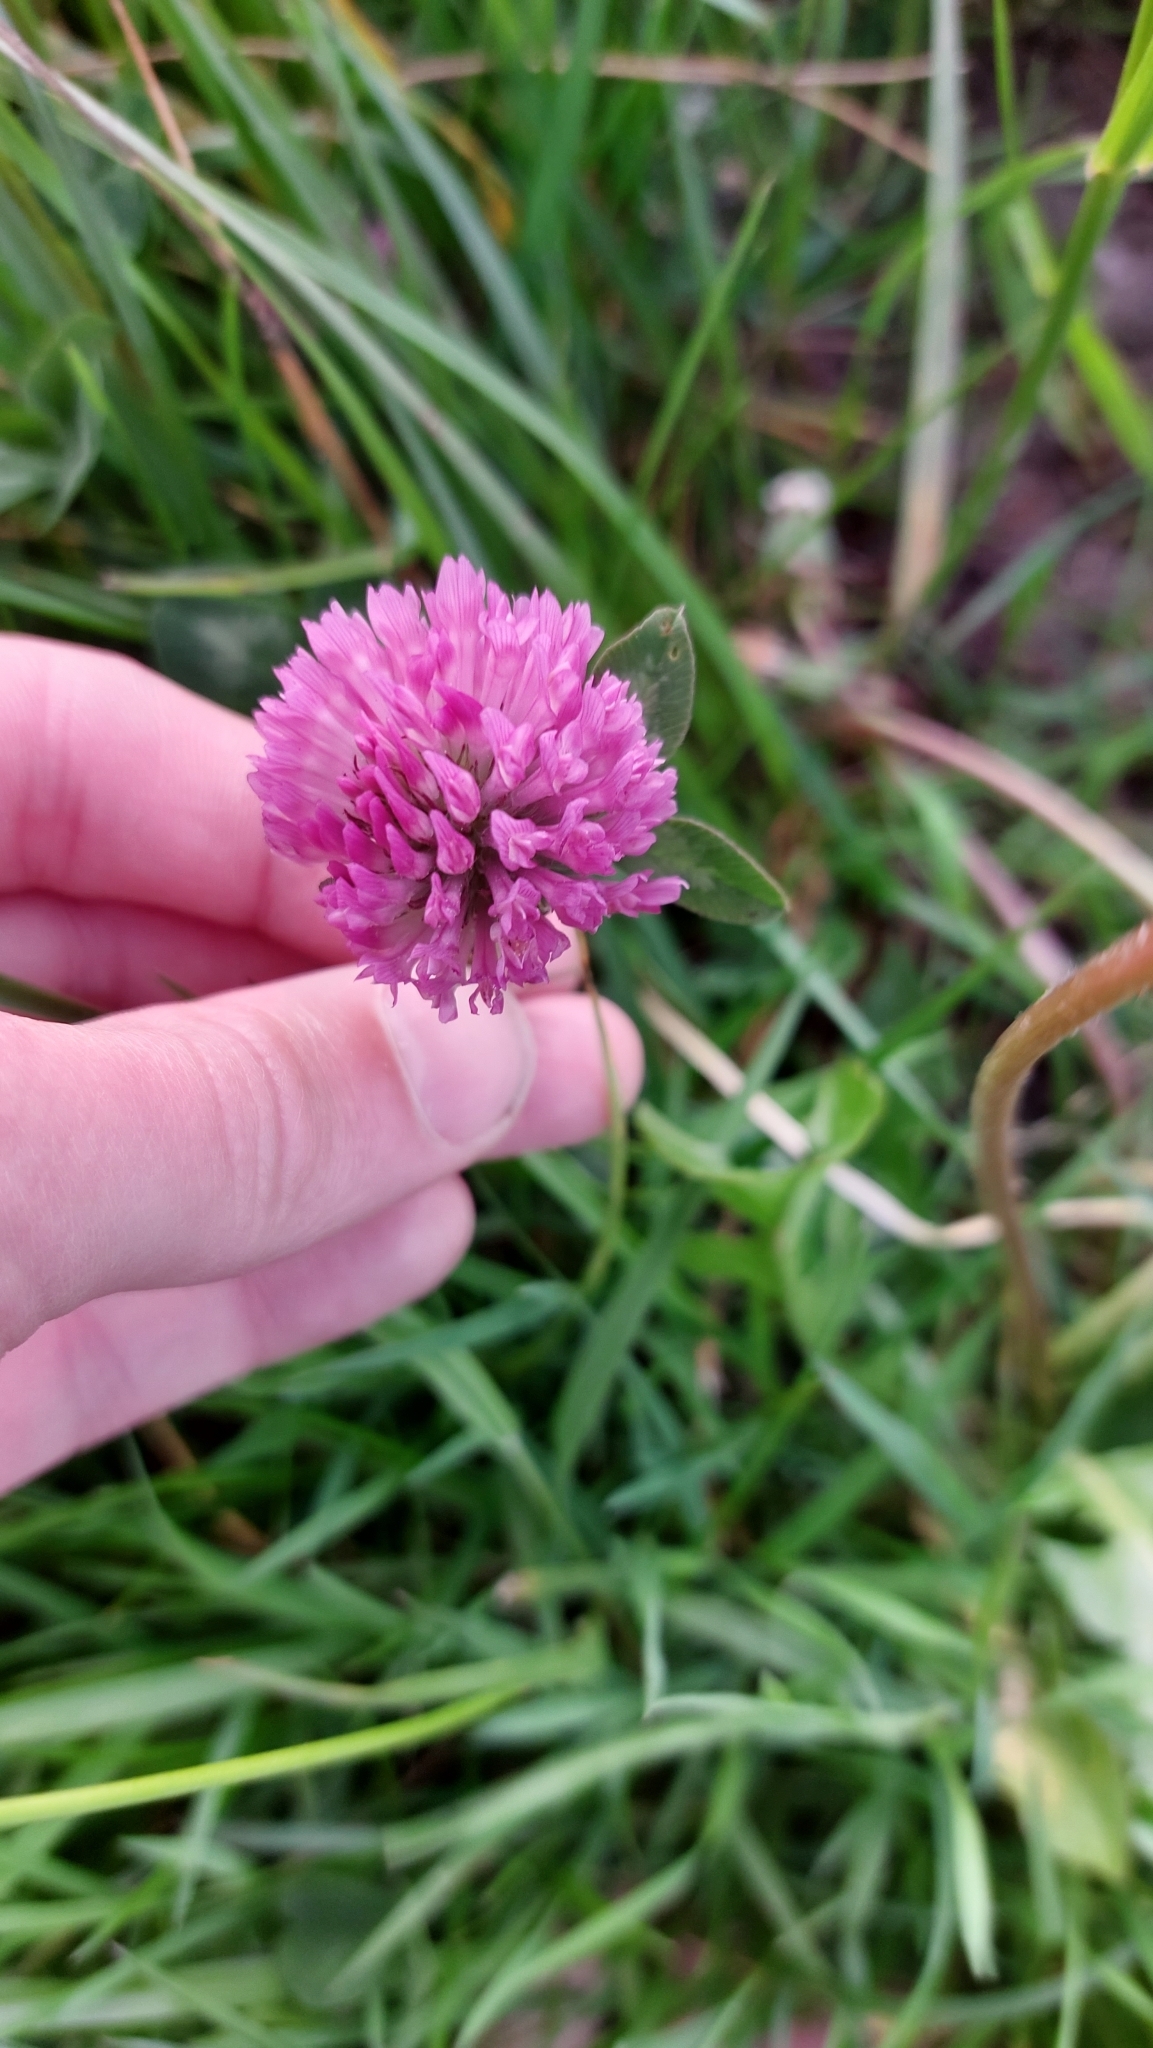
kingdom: Plantae
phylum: Tracheophyta
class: Magnoliopsida
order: Fabales
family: Fabaceae
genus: Trifolium
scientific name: Trifolium pratense
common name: Red clover
